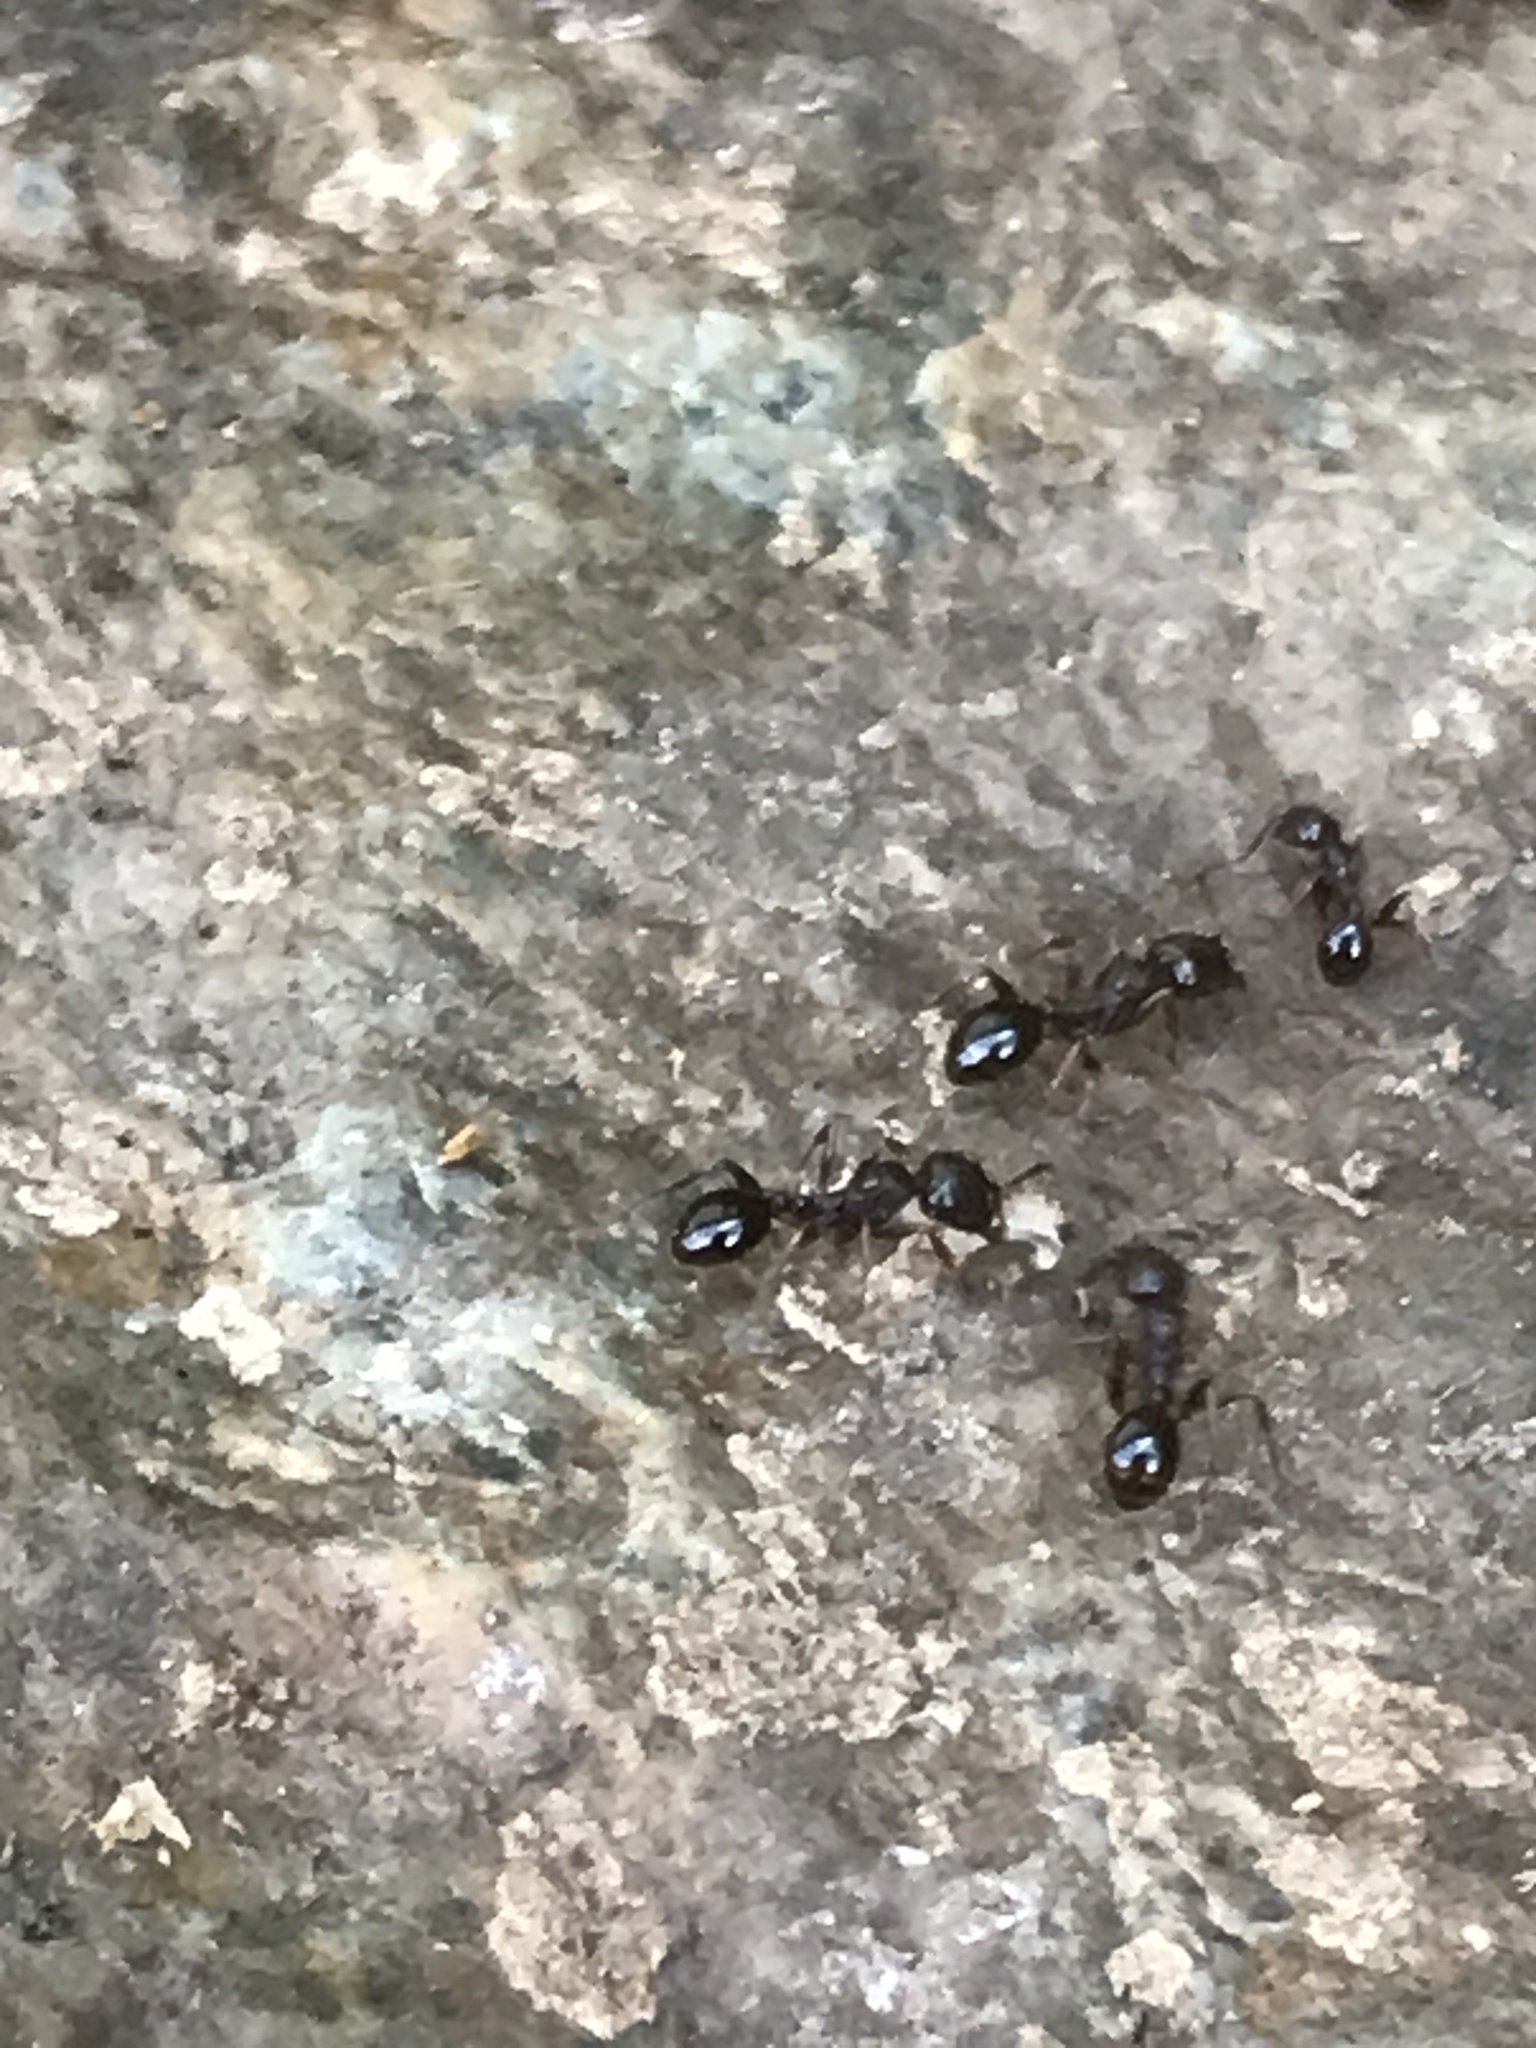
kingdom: Animalia
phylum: Arthropoda
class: Insecta
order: Hymenoptera
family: Formicidae
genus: Aphaenogaster
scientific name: Aphaenogaster occidentalis
